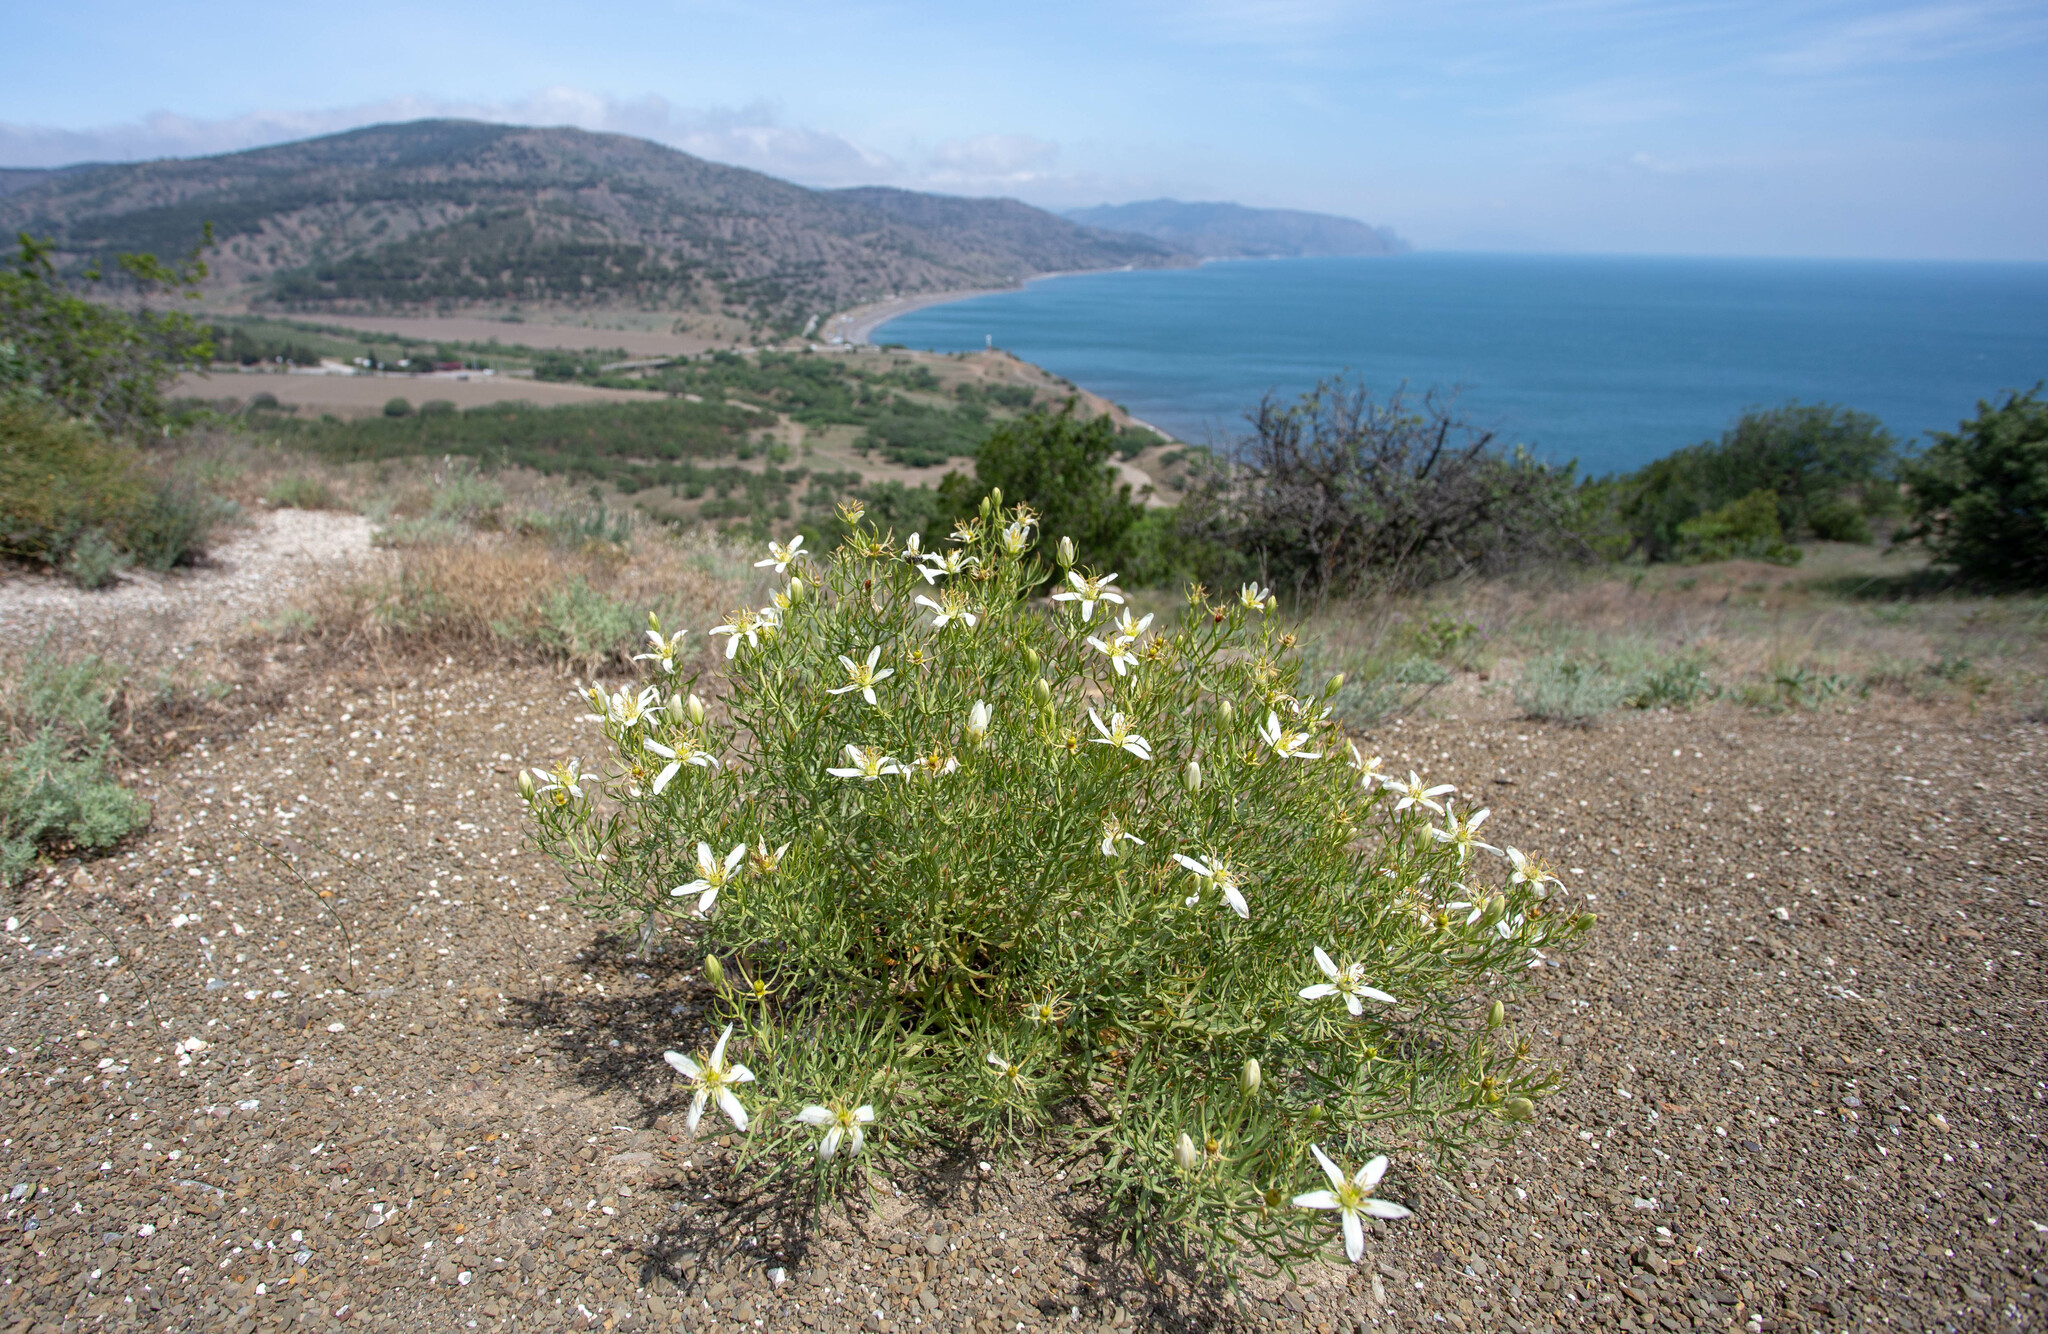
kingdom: Plantae
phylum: Tracheophyta
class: Magnoliopsida
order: Sapindales
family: Tetradiclidaceae
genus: Peganum
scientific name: Peganum harmala
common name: Harmal peganum
